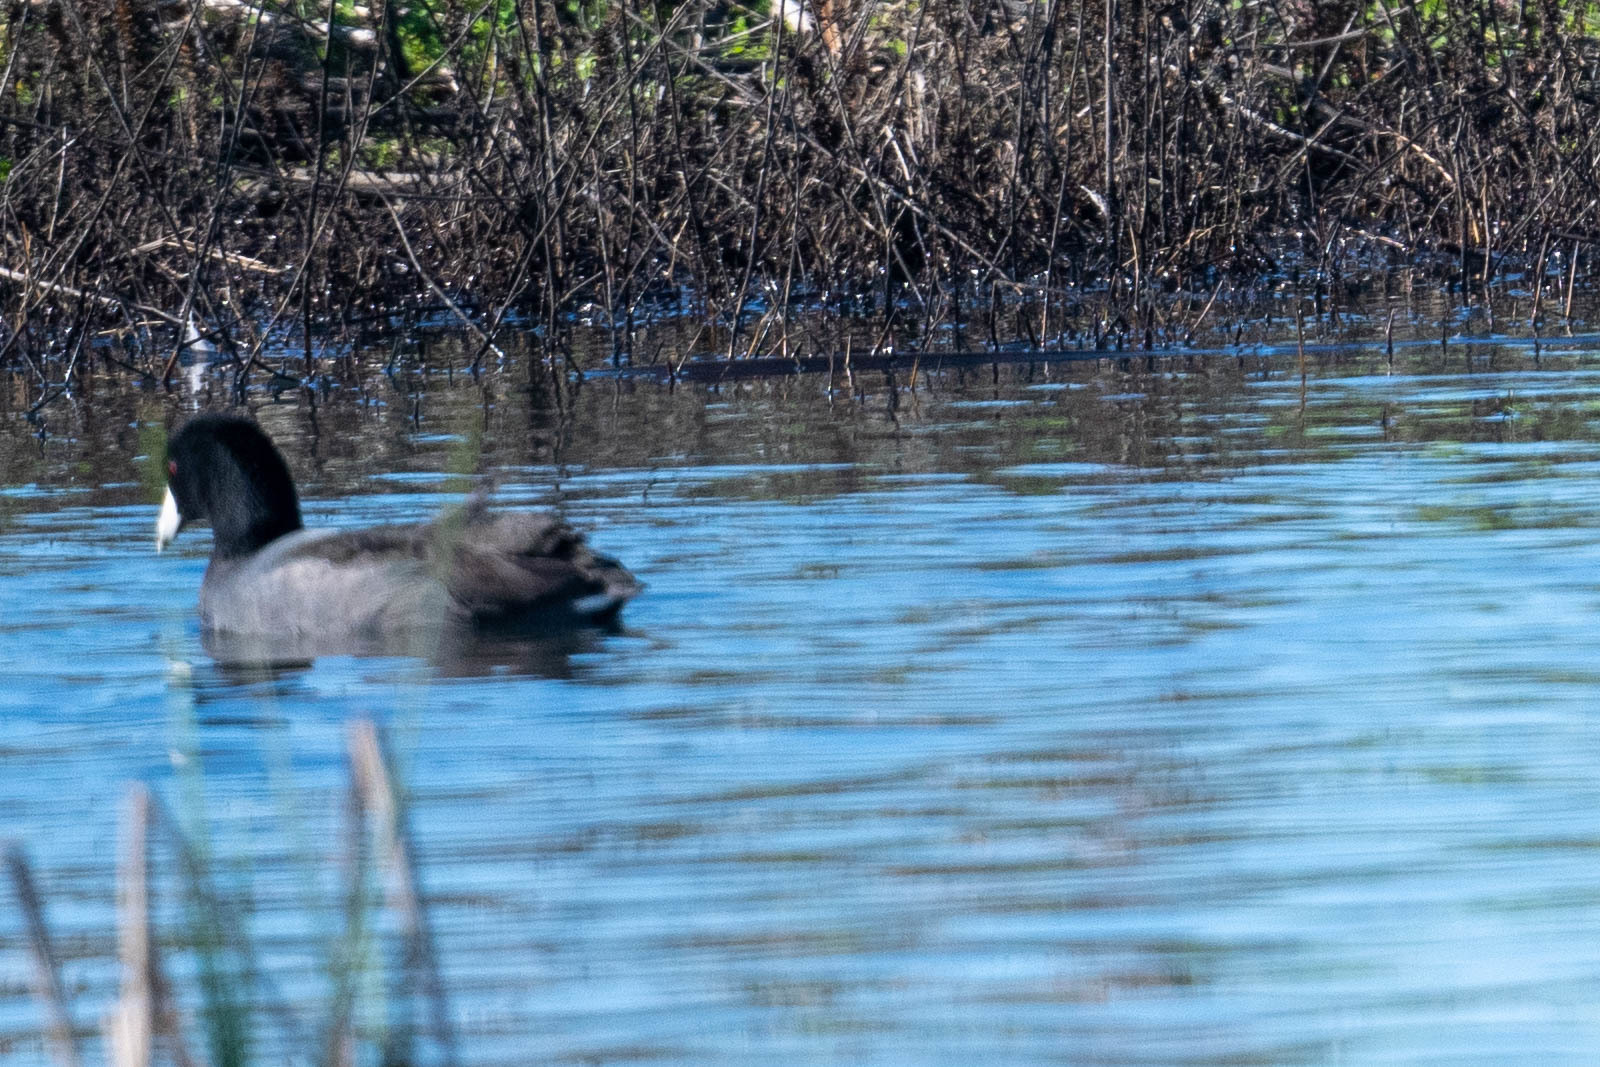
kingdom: Animalia
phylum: Chordata
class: Aves
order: Gruiformes
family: Rallidae
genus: Fulica
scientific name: Fulica americana
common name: American coot
